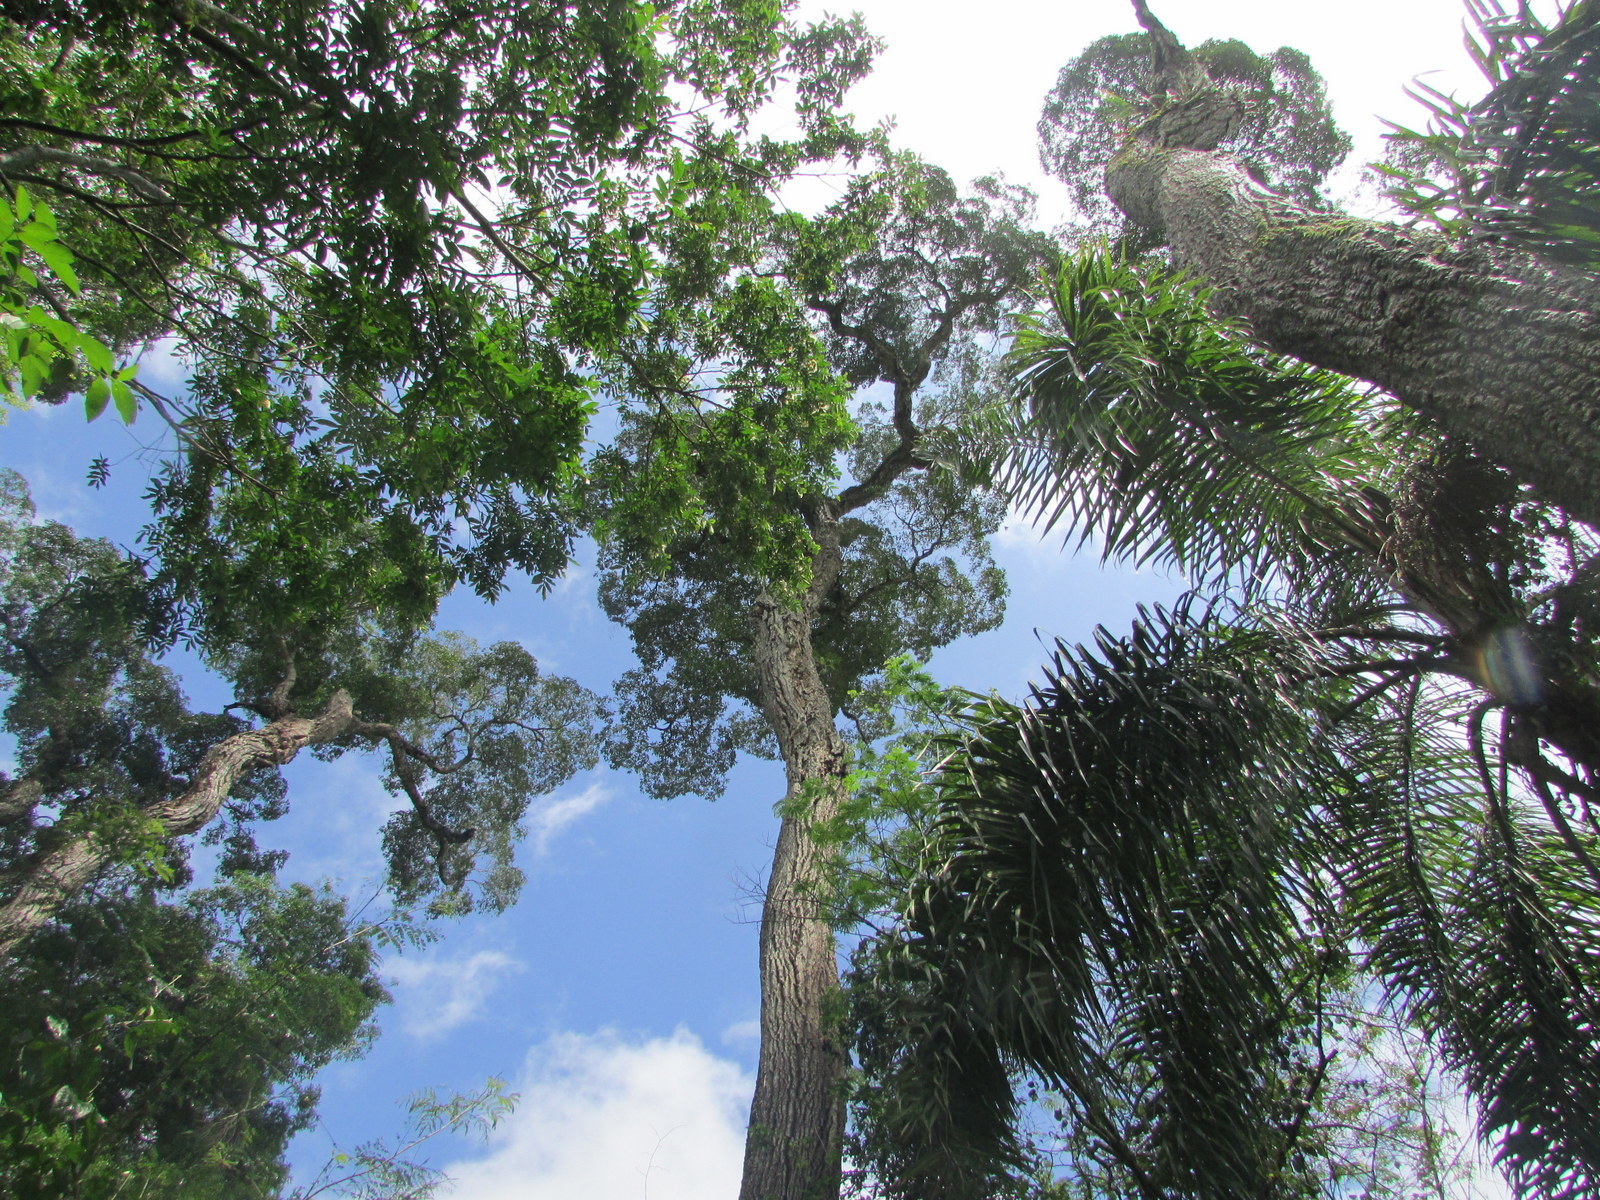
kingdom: Plantae
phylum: Tracheophyta
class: Magnoliopsida
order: Gentianales
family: Apocynaceae
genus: Aspidosperma
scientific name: Aspidosperma polyneuron
